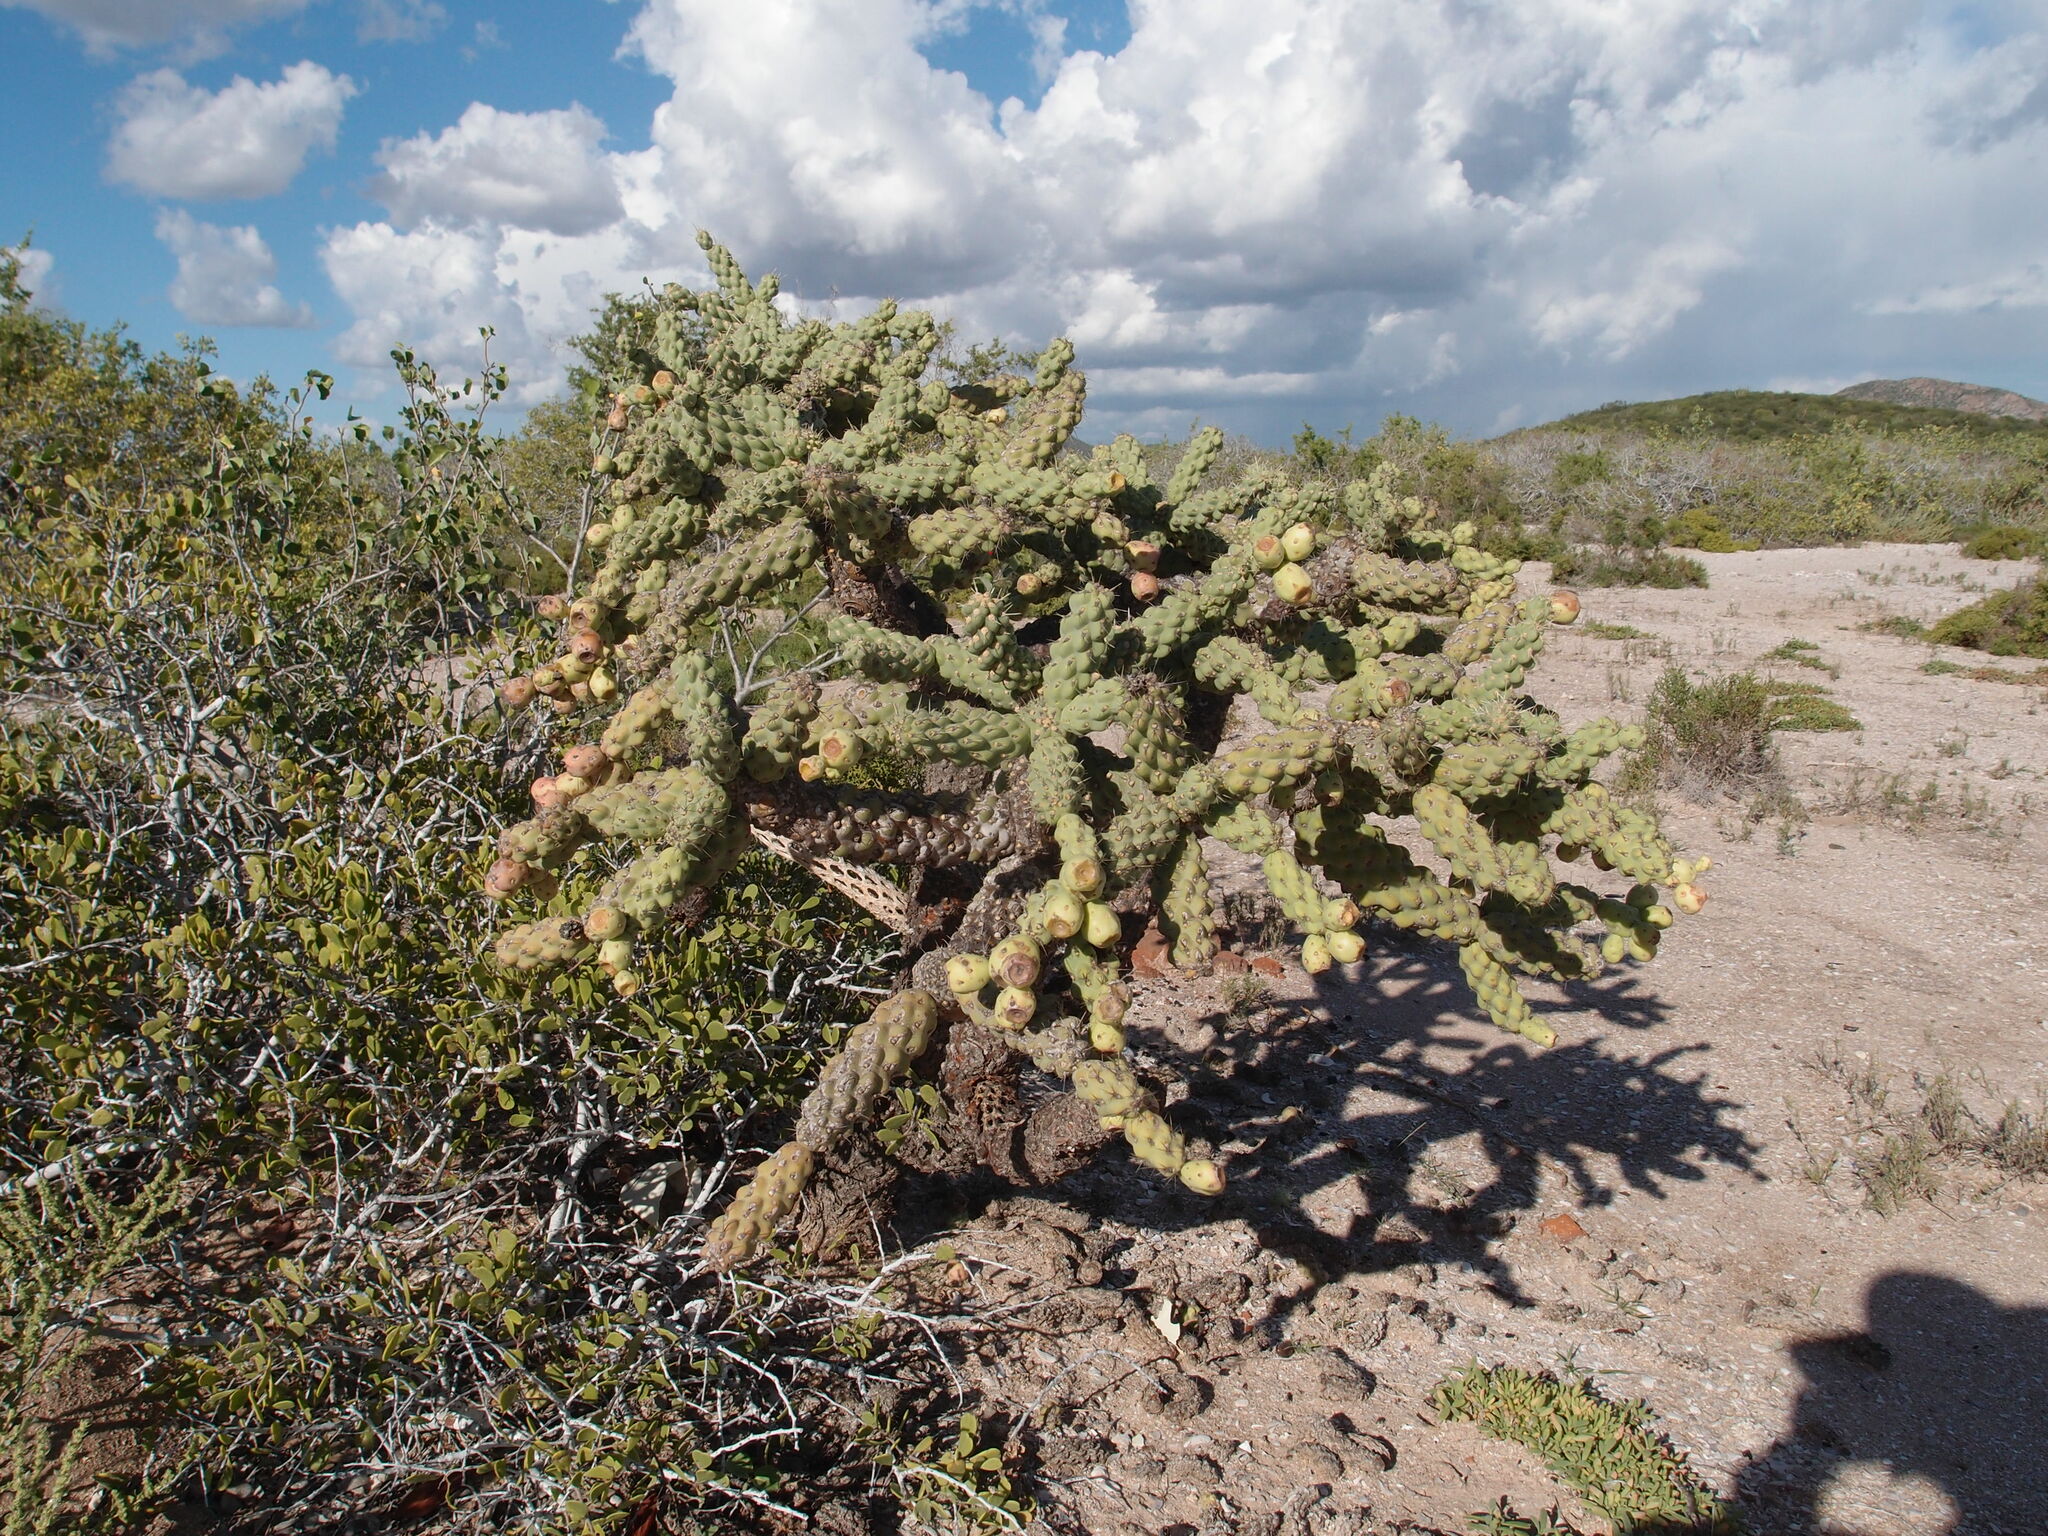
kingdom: Plantae
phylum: Tracheophyta
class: Magnoliopsida
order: Caryophyllales
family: Cactaceae
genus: Cylindropuntia
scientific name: Cylindropuntia fulgida
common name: Jumping cholla
